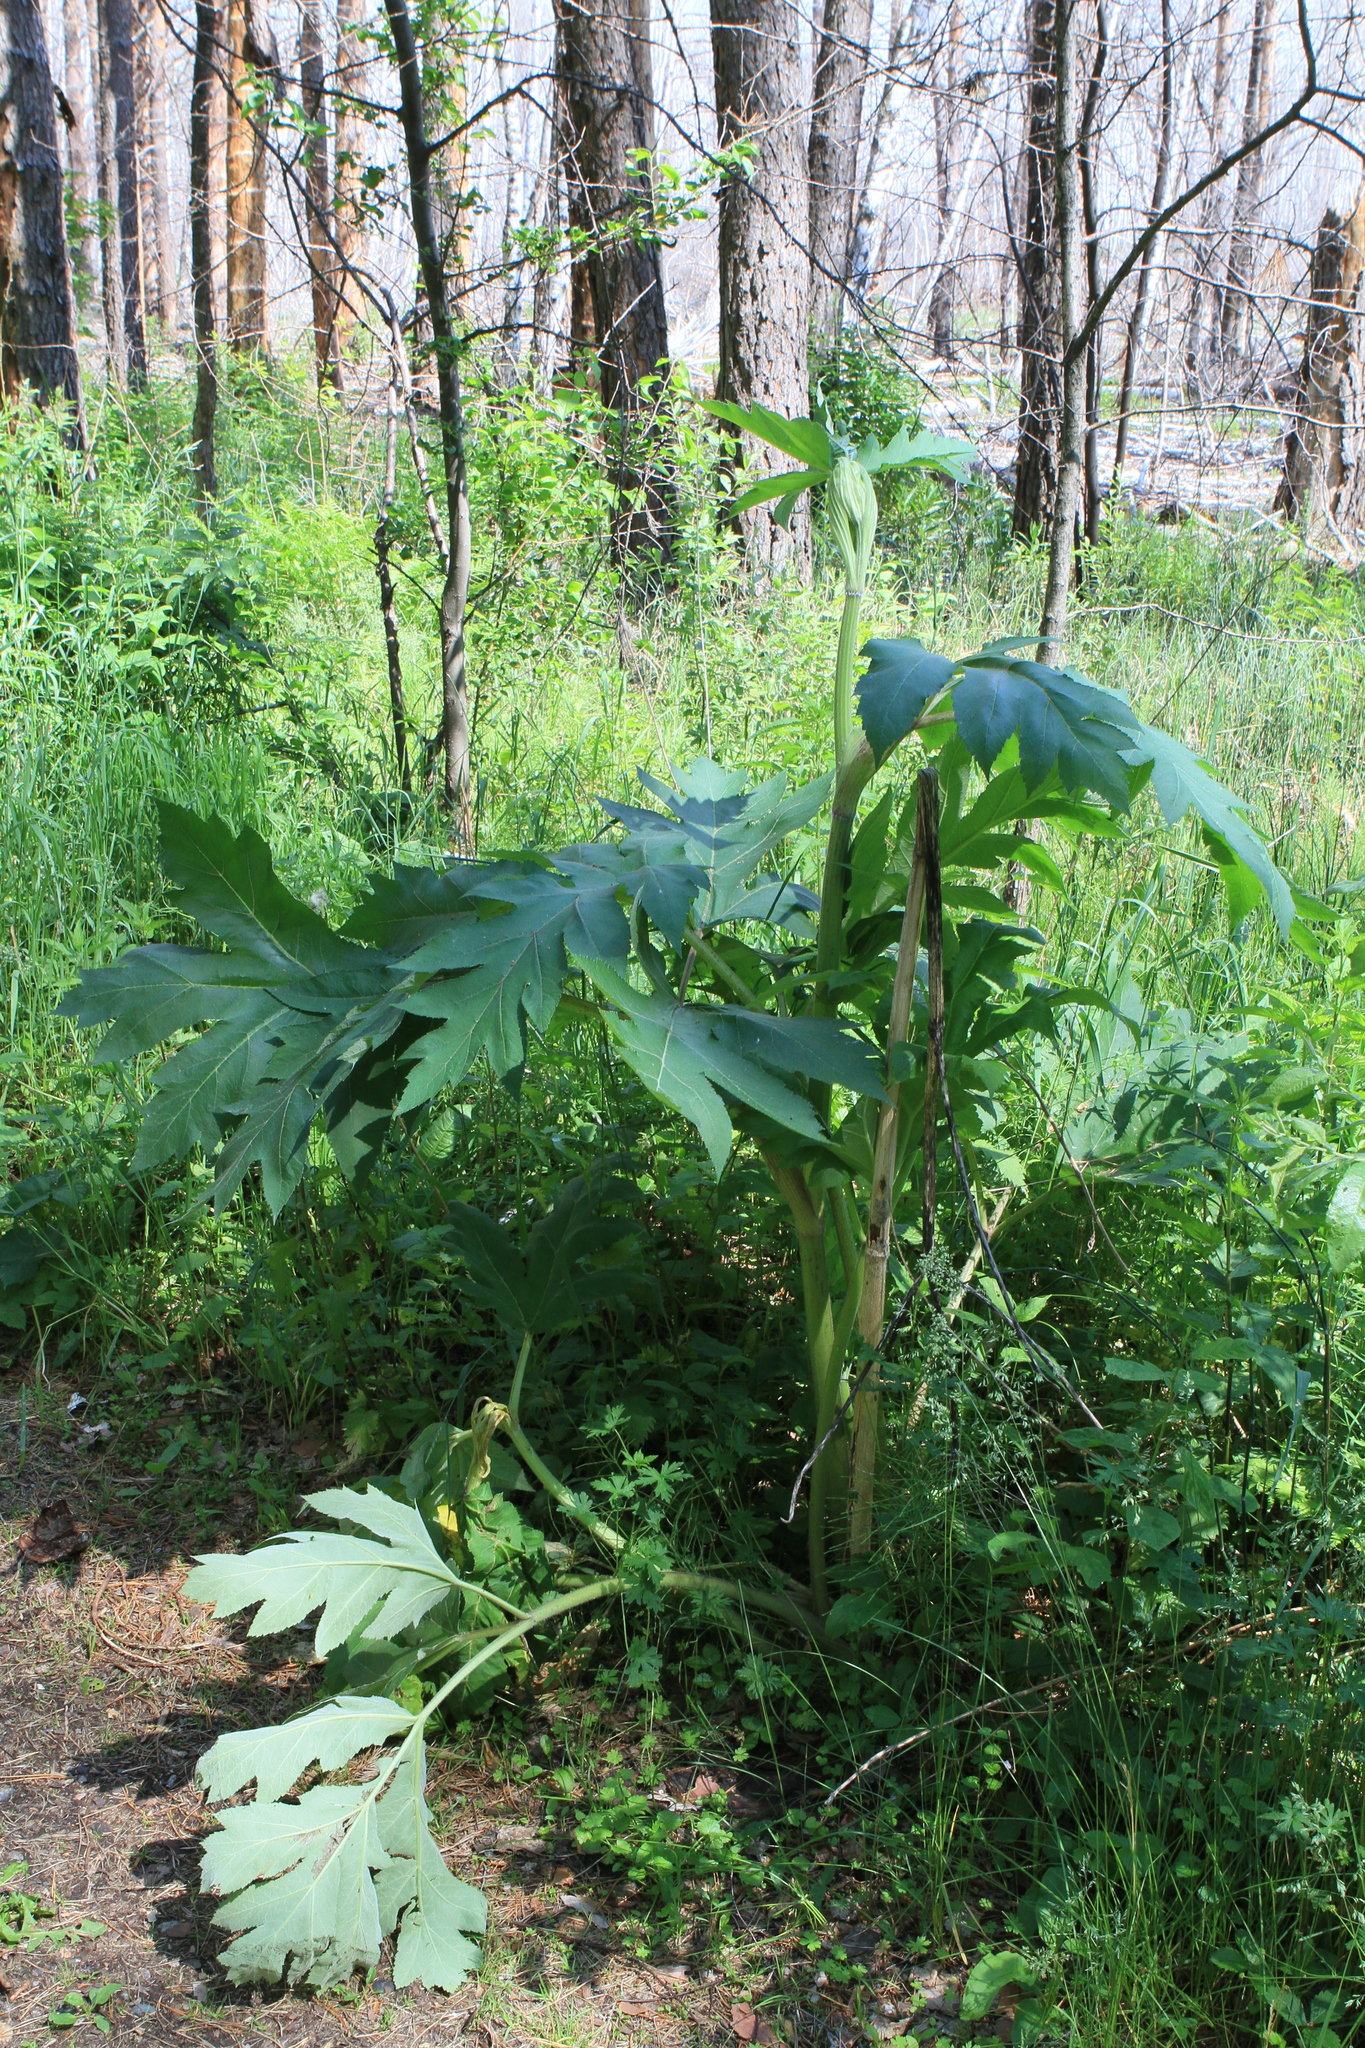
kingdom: Plantae
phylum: Tracheophyta
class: Magnoliopsida
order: Apiales
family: Apiaceae
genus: Heracleum
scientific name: Heracleum dissectum
